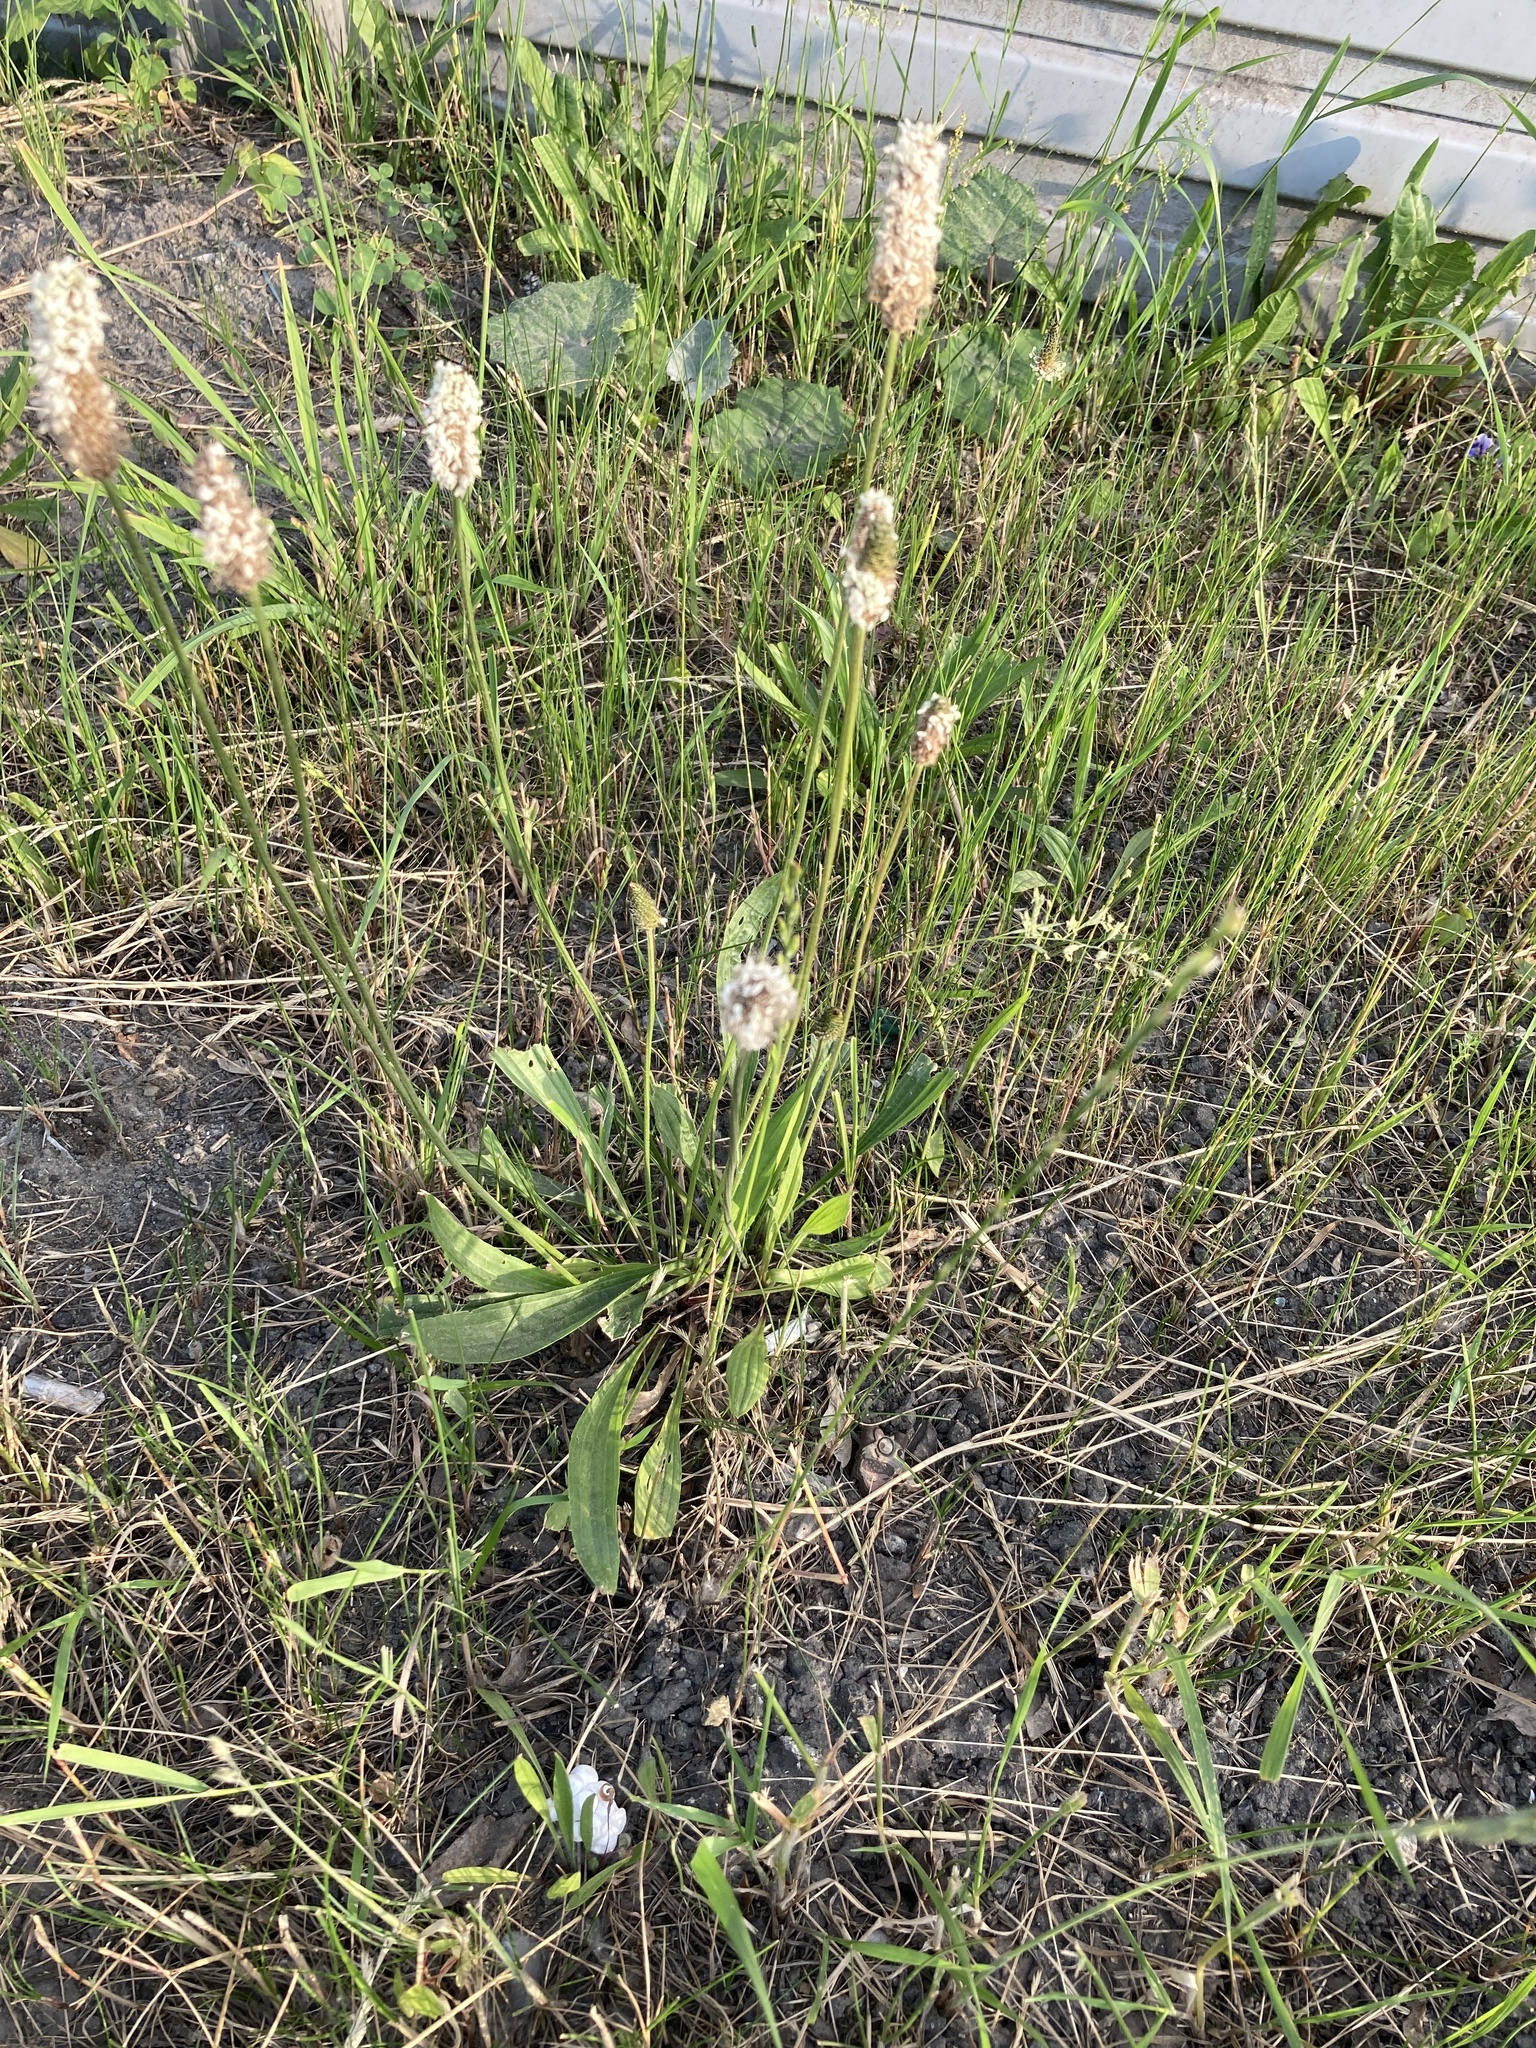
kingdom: Plantae
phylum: Tracheophyta
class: Magnoliopsida
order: Lamiales
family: Plantaginaceae
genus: Plantago
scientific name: Plantago lanceolata
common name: Ribwort plantain
